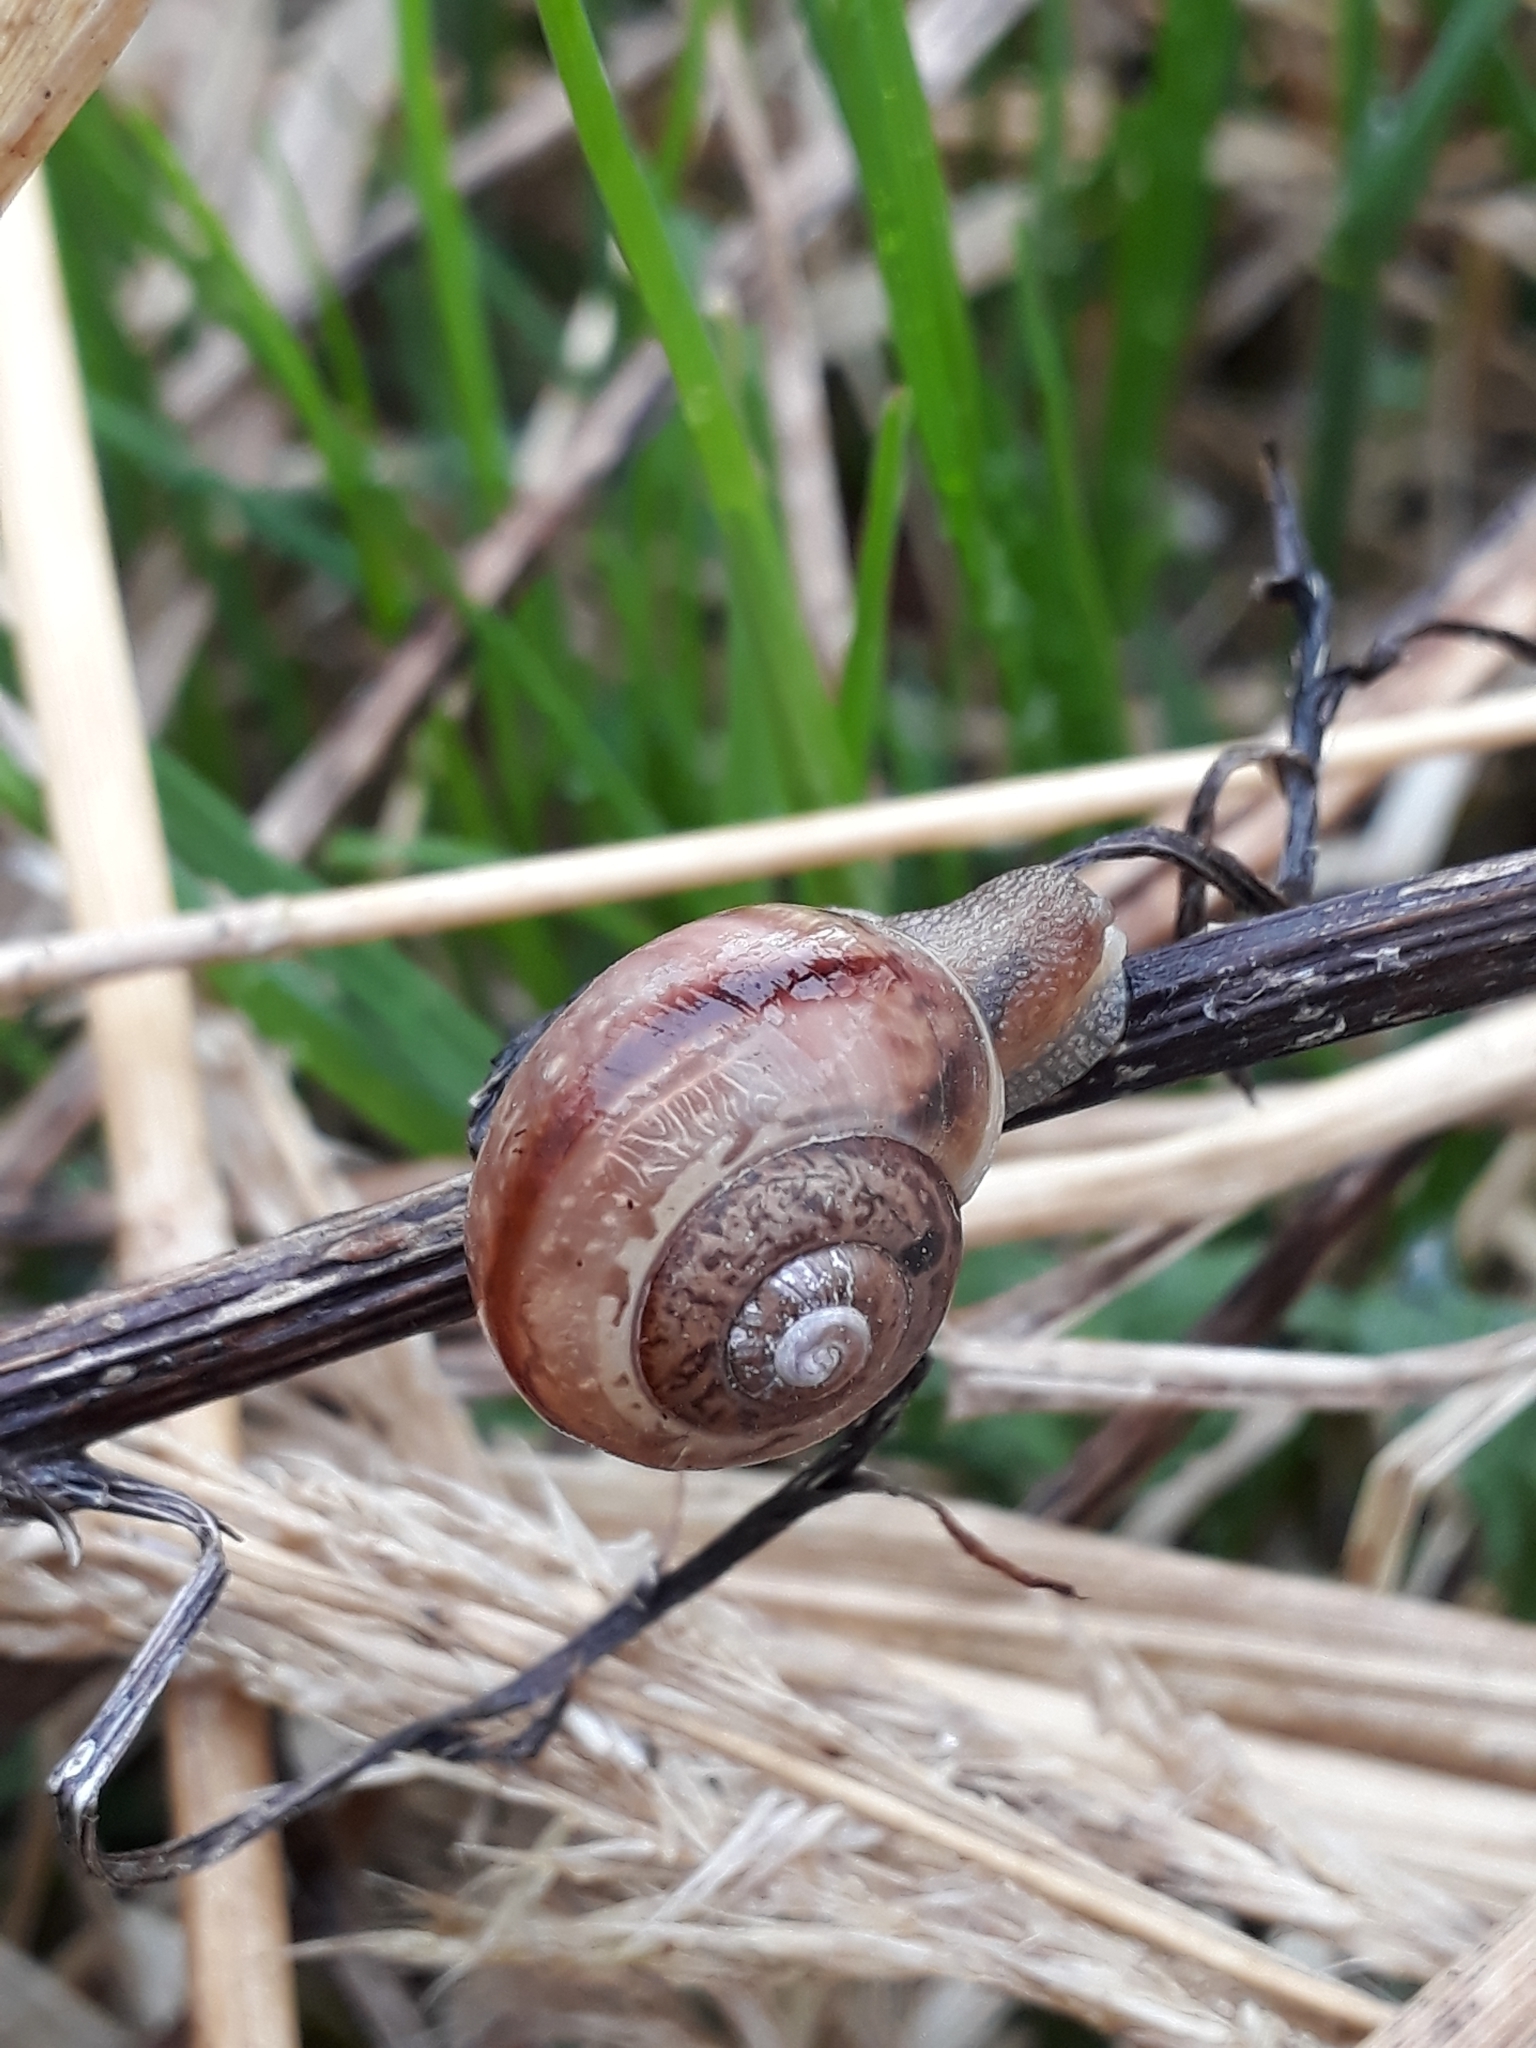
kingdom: Animalia
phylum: Mollusca
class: Gastropoda
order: Stylommatophora
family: Camaenidae
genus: Fruticicola
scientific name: Fruticicola fruticum
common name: Bush snail
